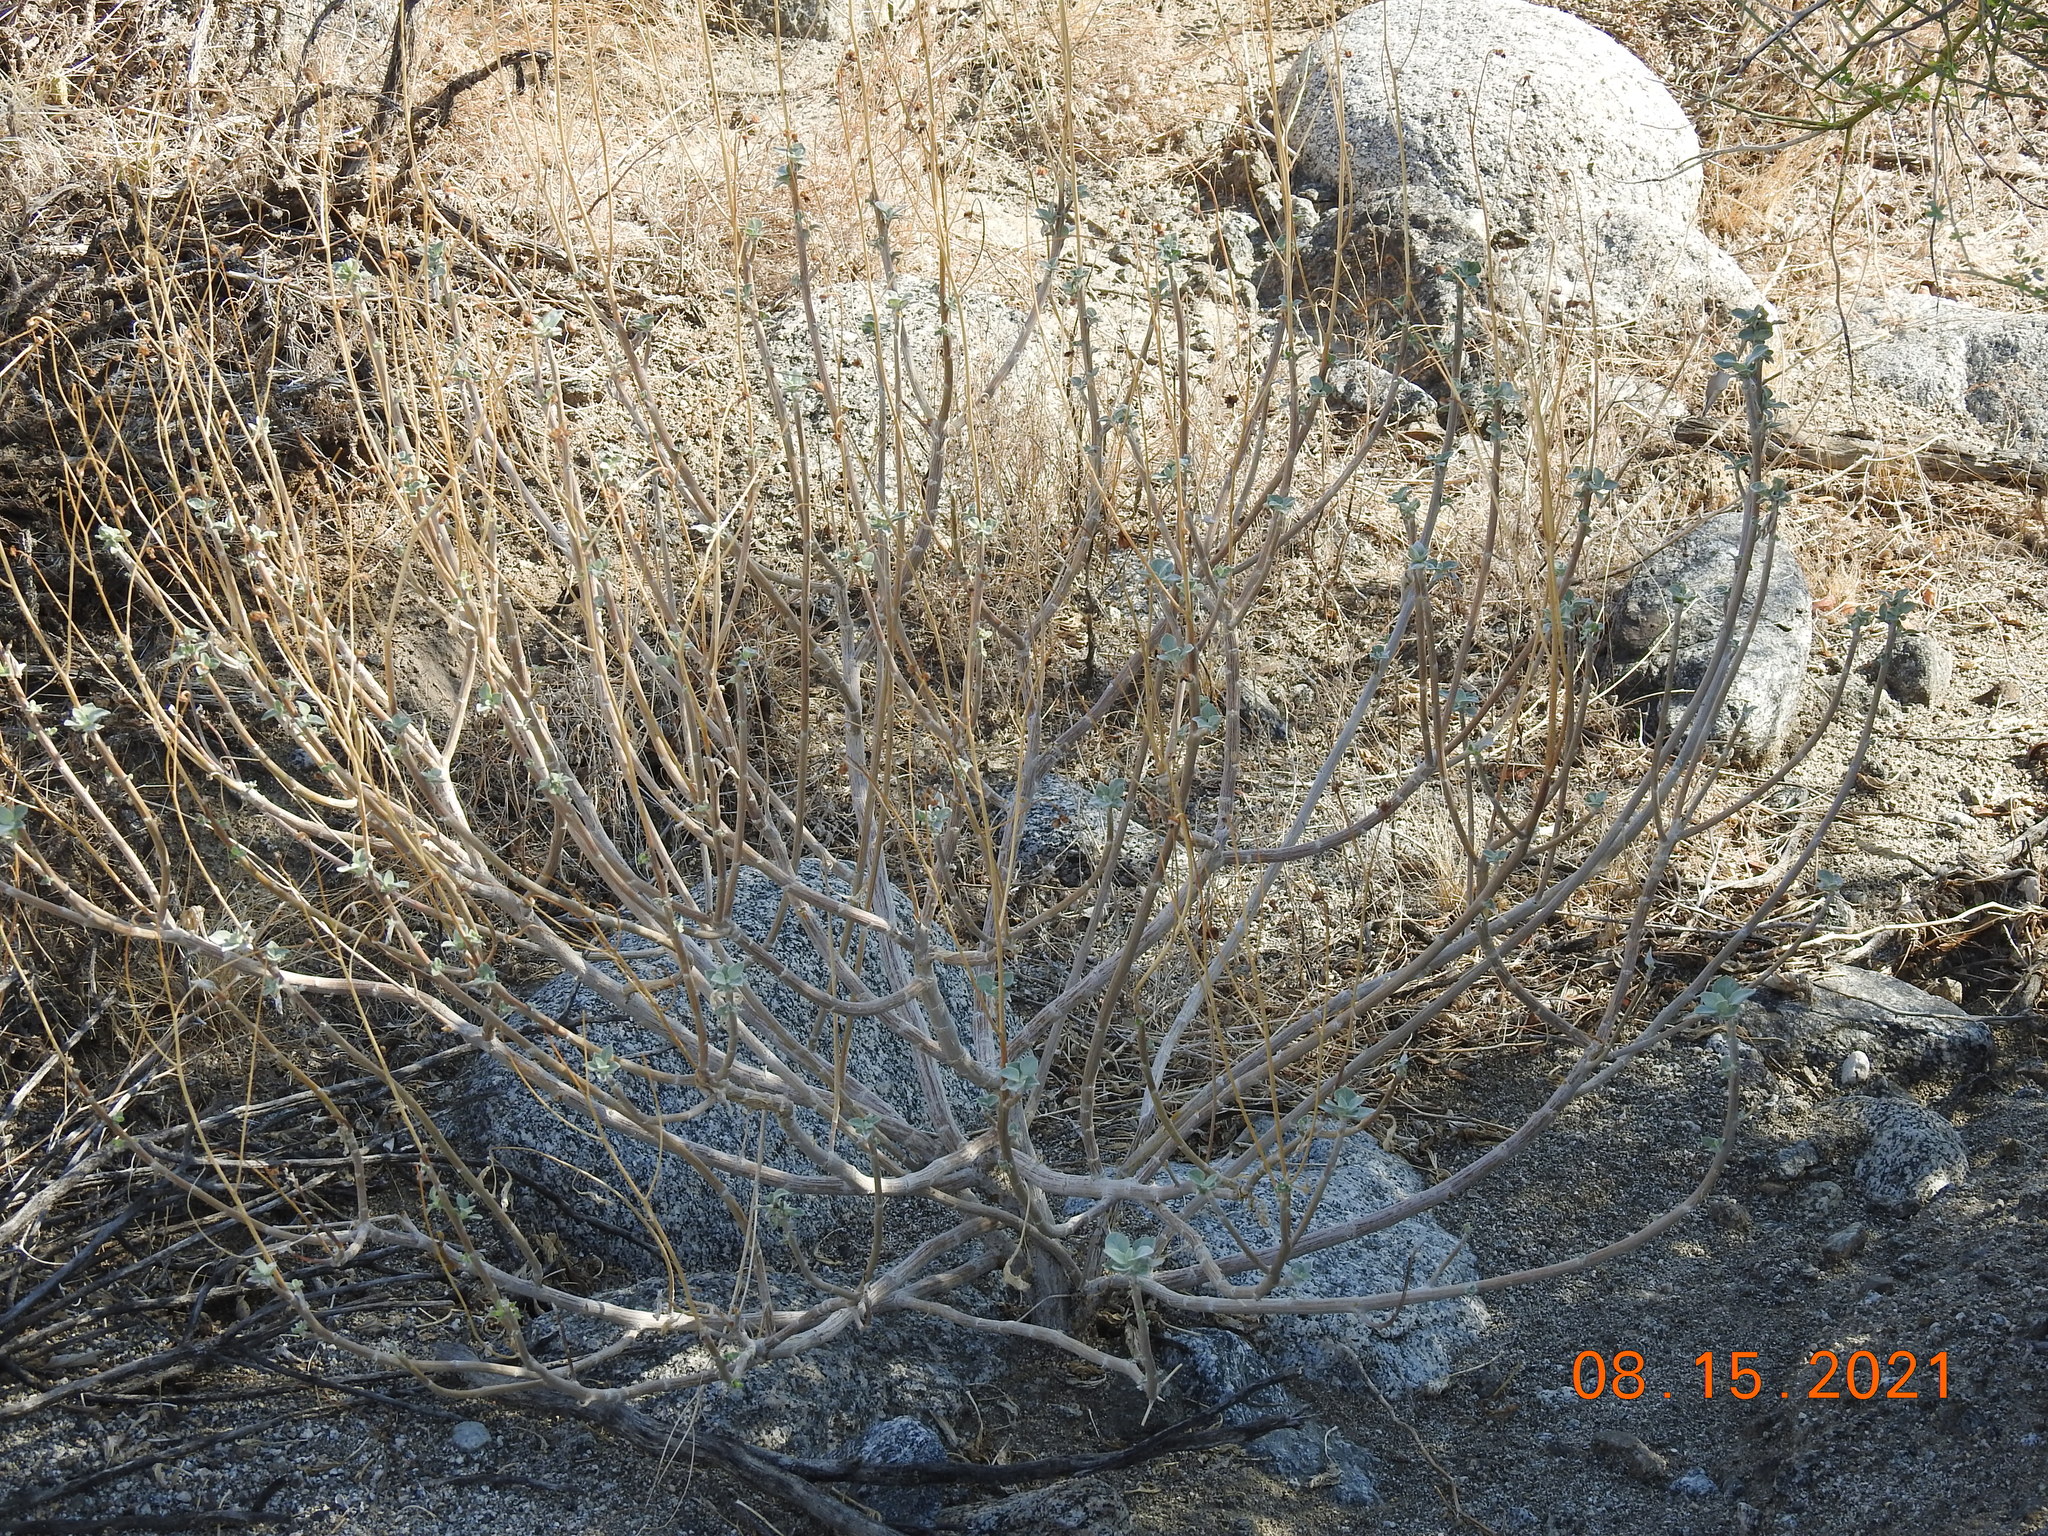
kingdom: Plantae
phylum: Tracheophyta
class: Magnoliopsida
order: Asterales
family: Asteraceae
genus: Encelia
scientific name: Encelia farinosa
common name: Brittlebush
